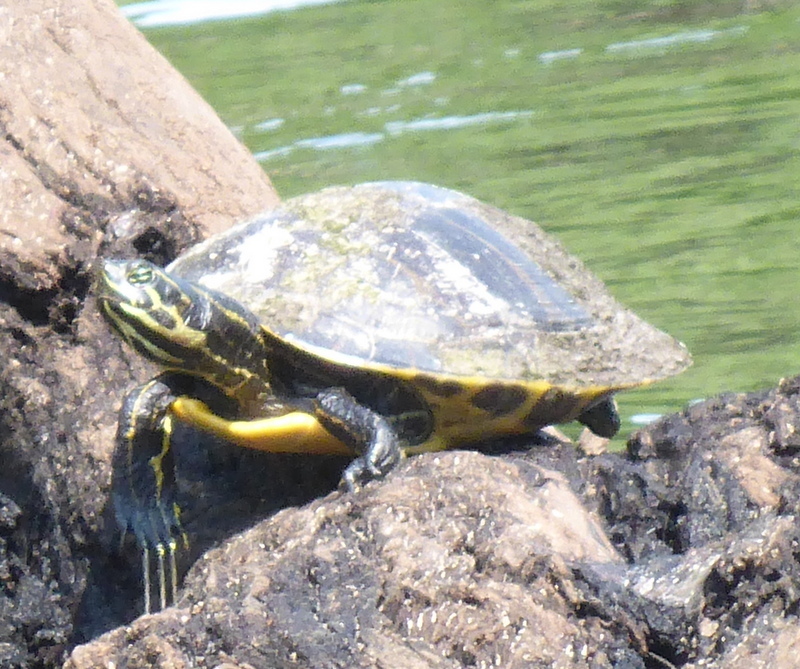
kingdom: Animalia
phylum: Chordata
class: Testudines
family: Emydidae
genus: Pseudemys
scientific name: Pseudemys concinna
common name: Eastern river cooter
